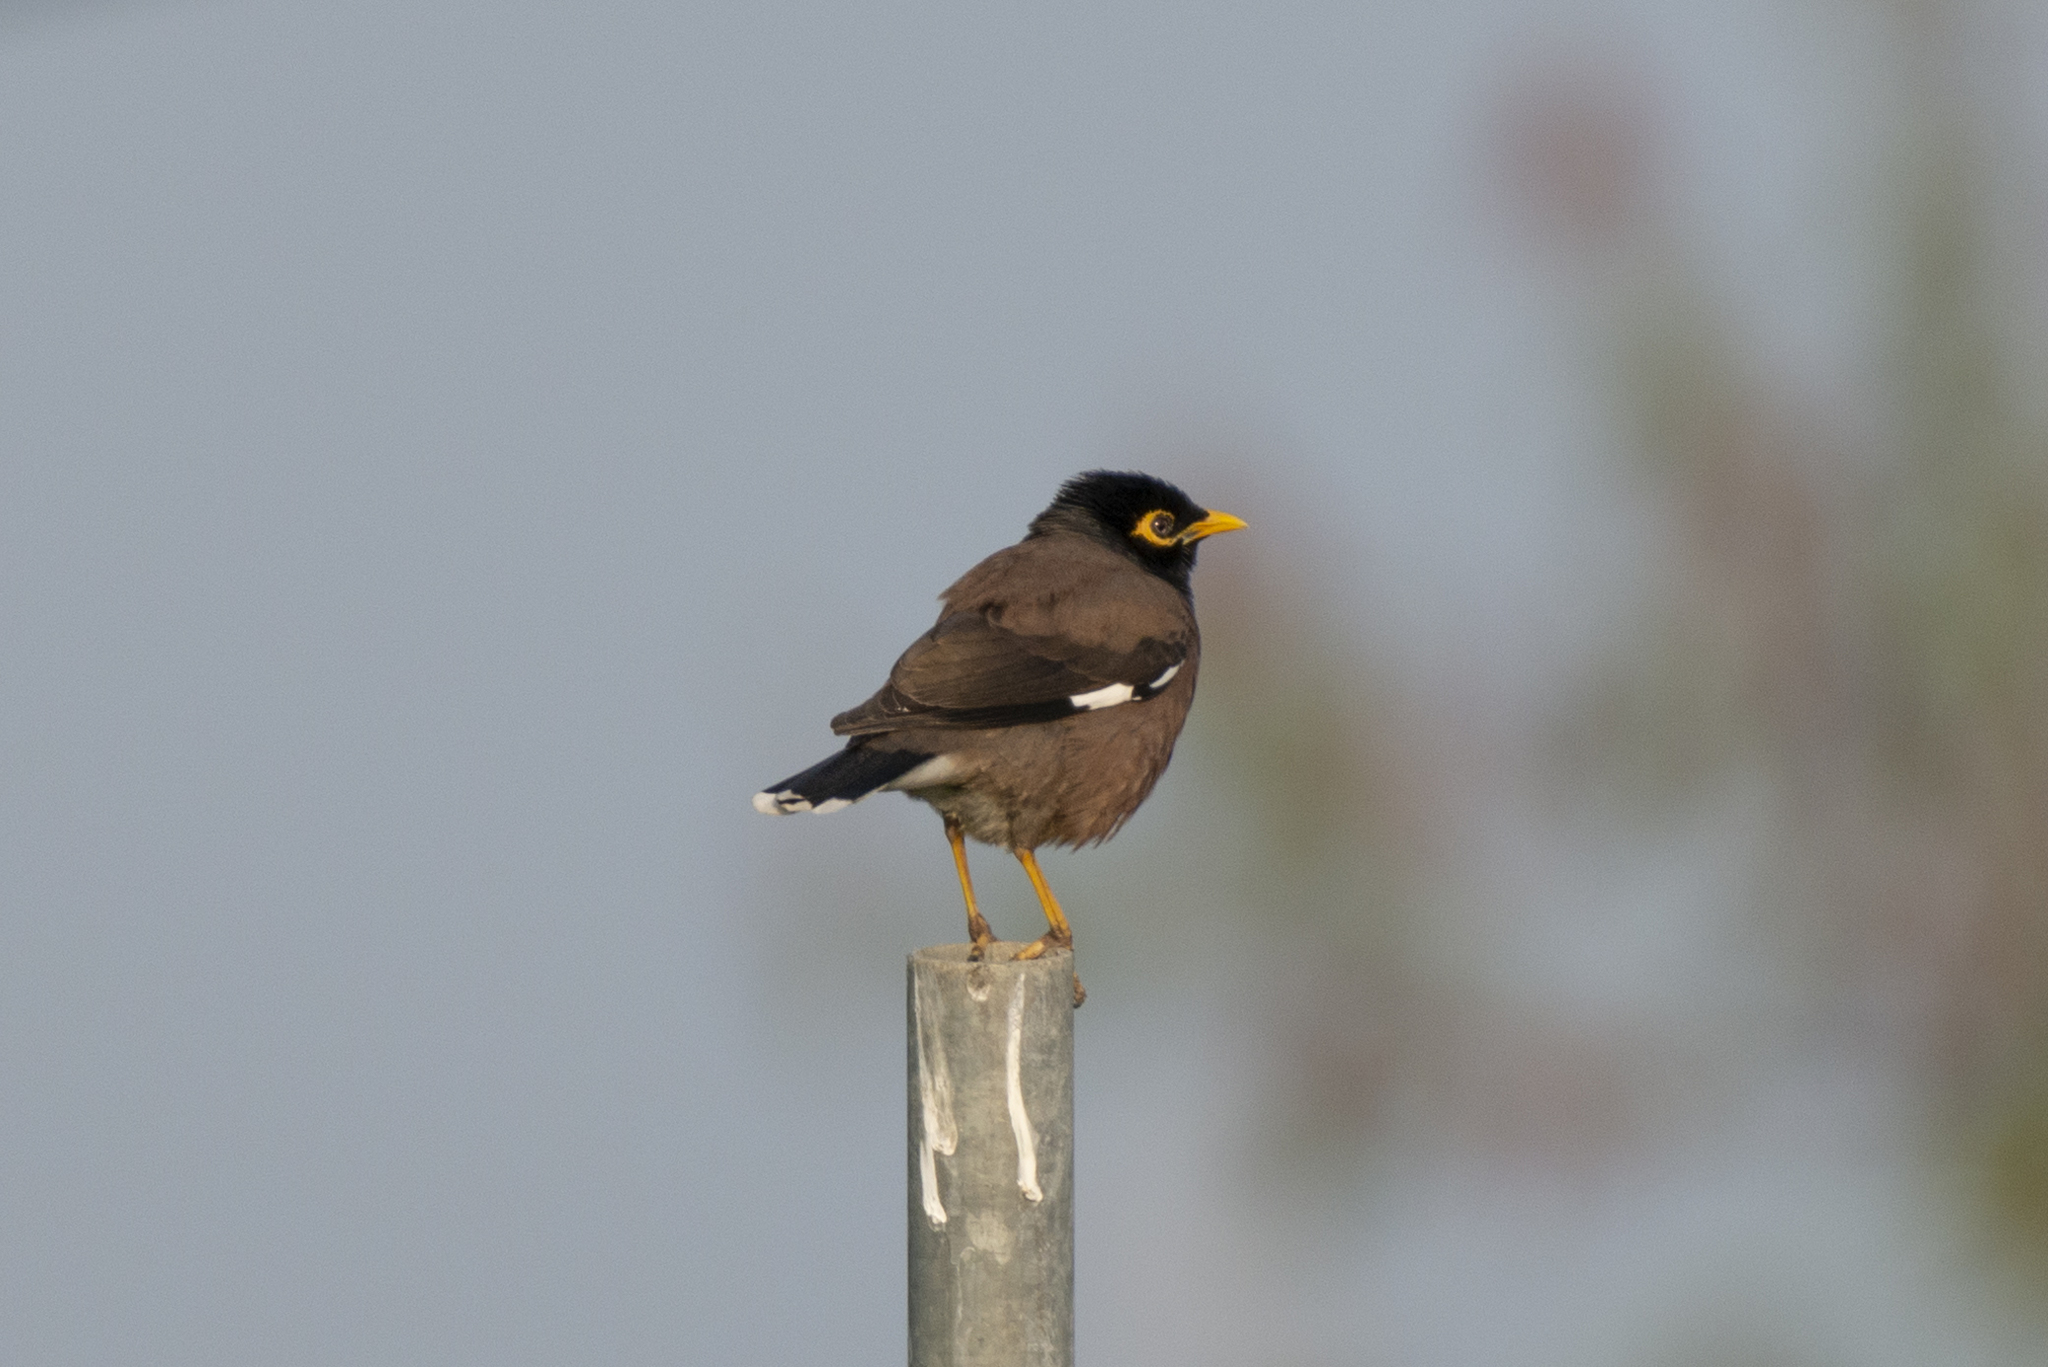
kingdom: Animalia
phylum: Chordata
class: Aves
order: Passeriformes
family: Sturnidae
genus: Acridotheres
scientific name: Acridotheres tristis
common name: Common myna
